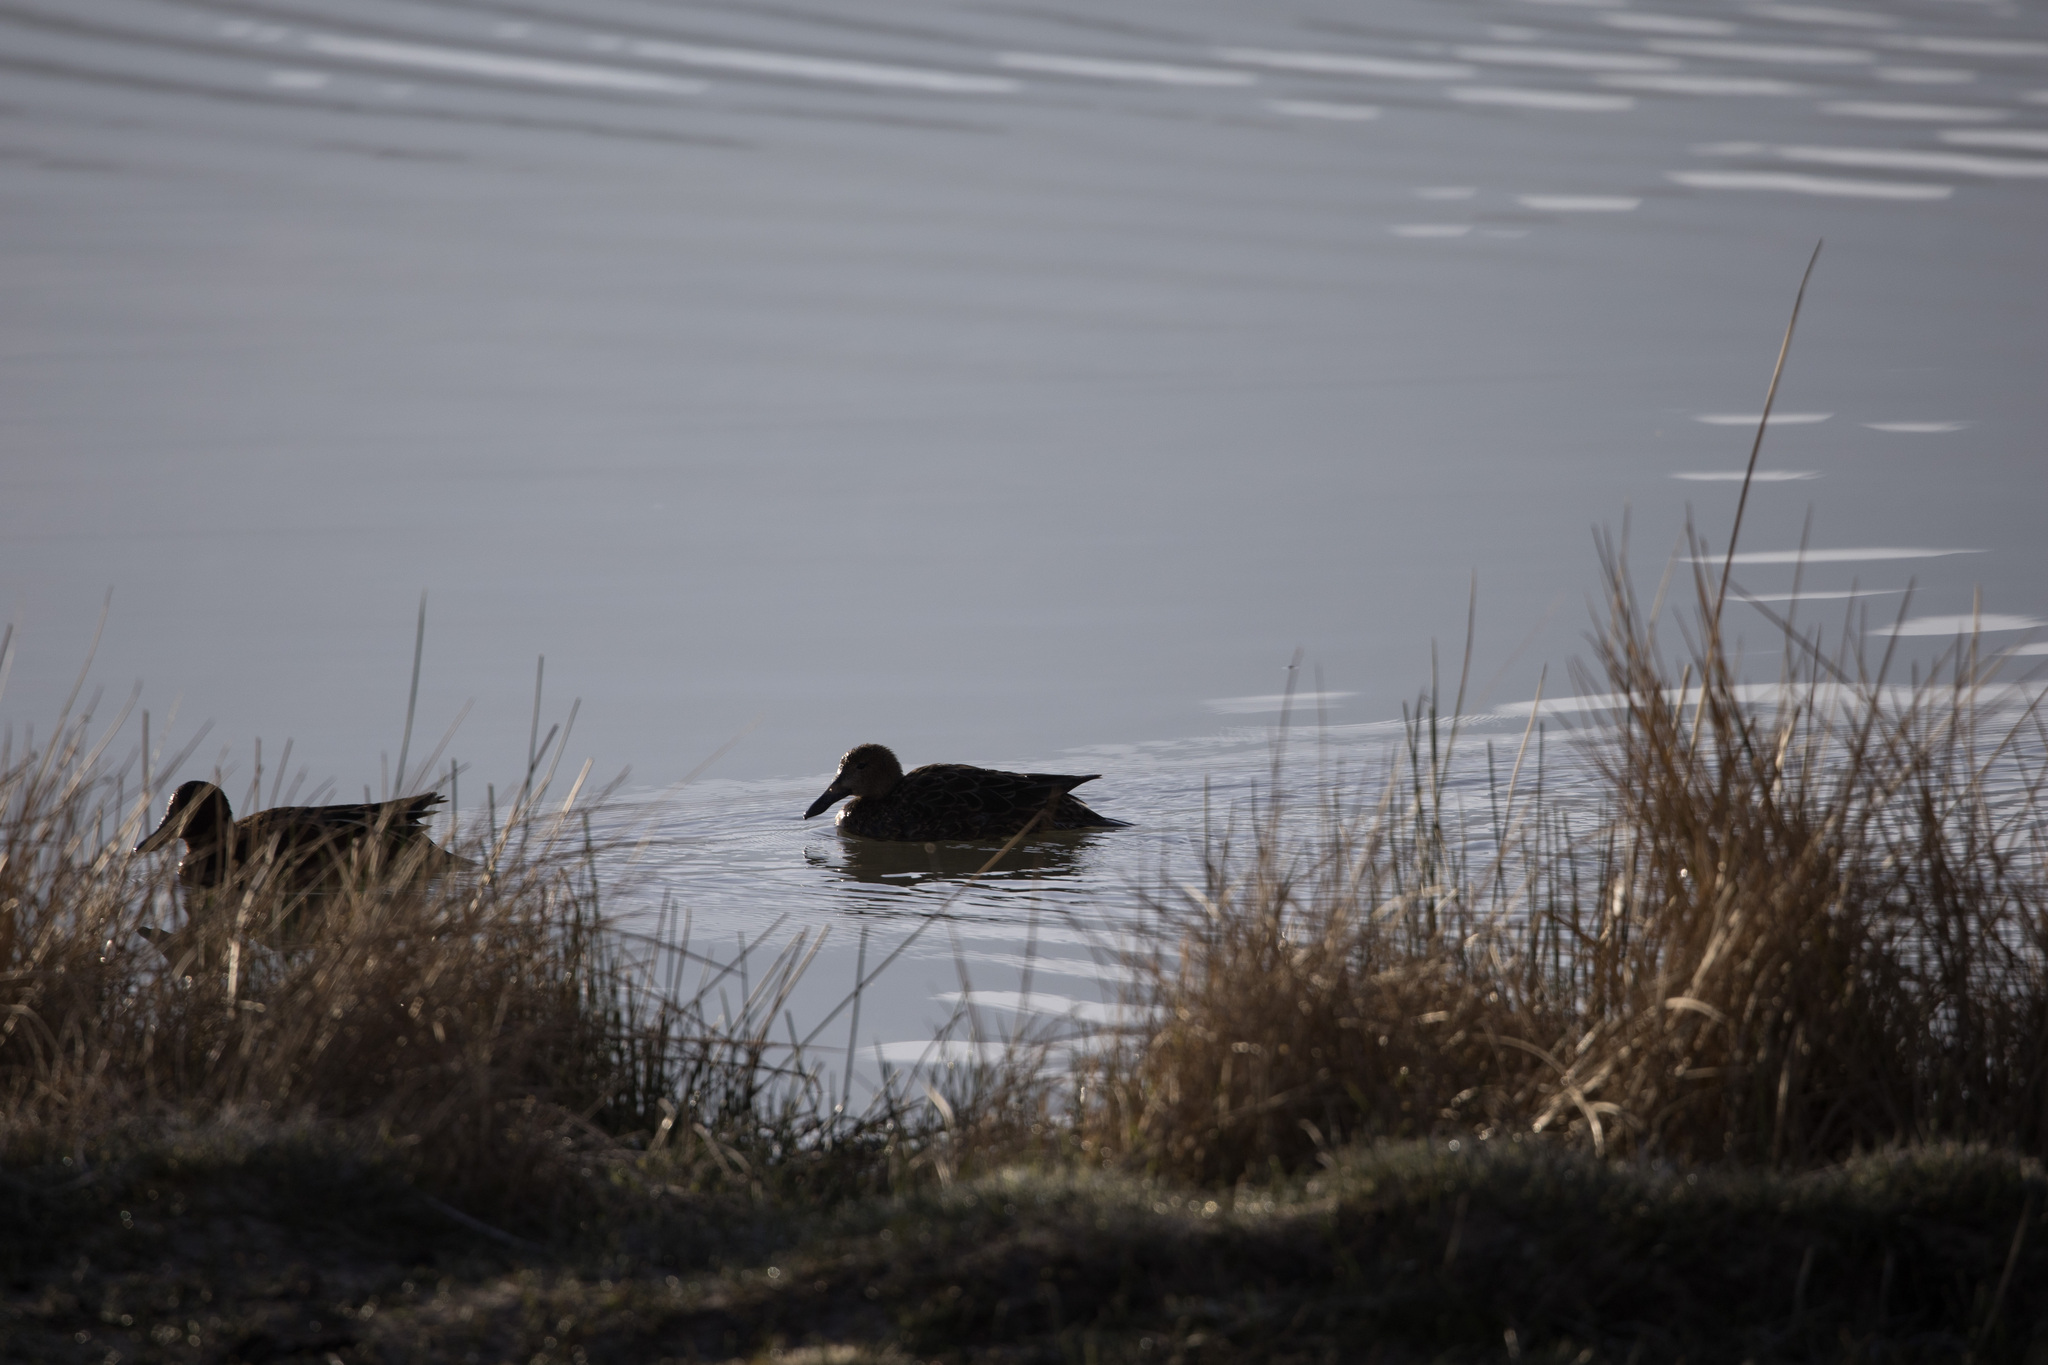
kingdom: Animalia
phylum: Chordata
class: Aves
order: Anseriformes
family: Anatidae
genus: Spatula
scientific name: Spatula cyanoptera
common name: Cinnamon teal
